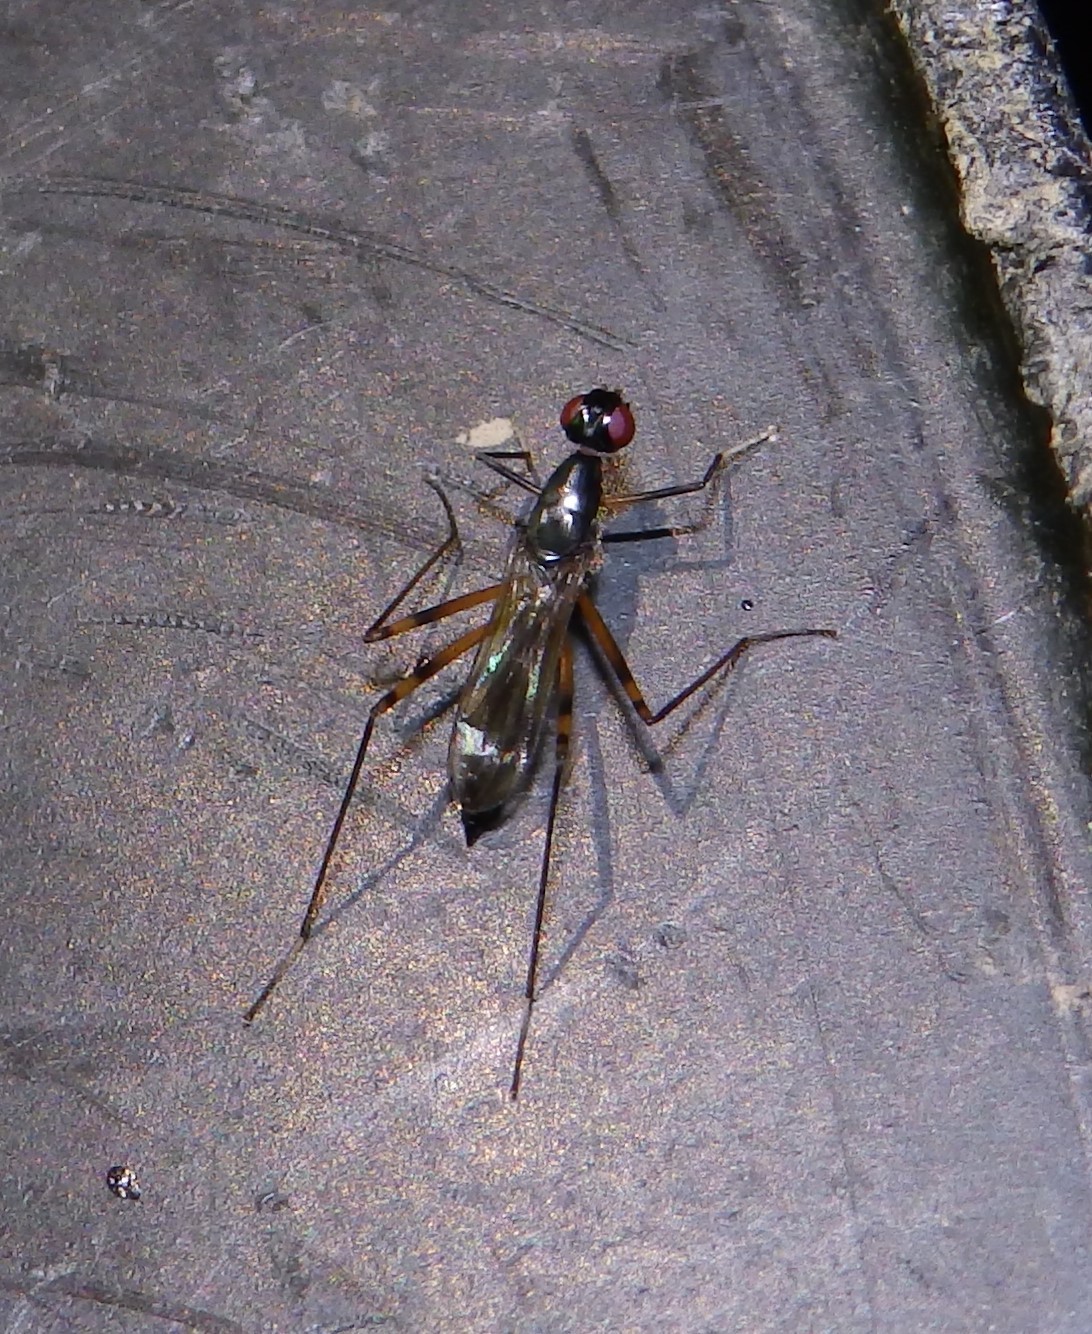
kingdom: Animalia
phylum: Arthropoda
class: Insecta
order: Diptera
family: Micropezidae
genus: Rainieria
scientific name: Rainieria antennaepes
